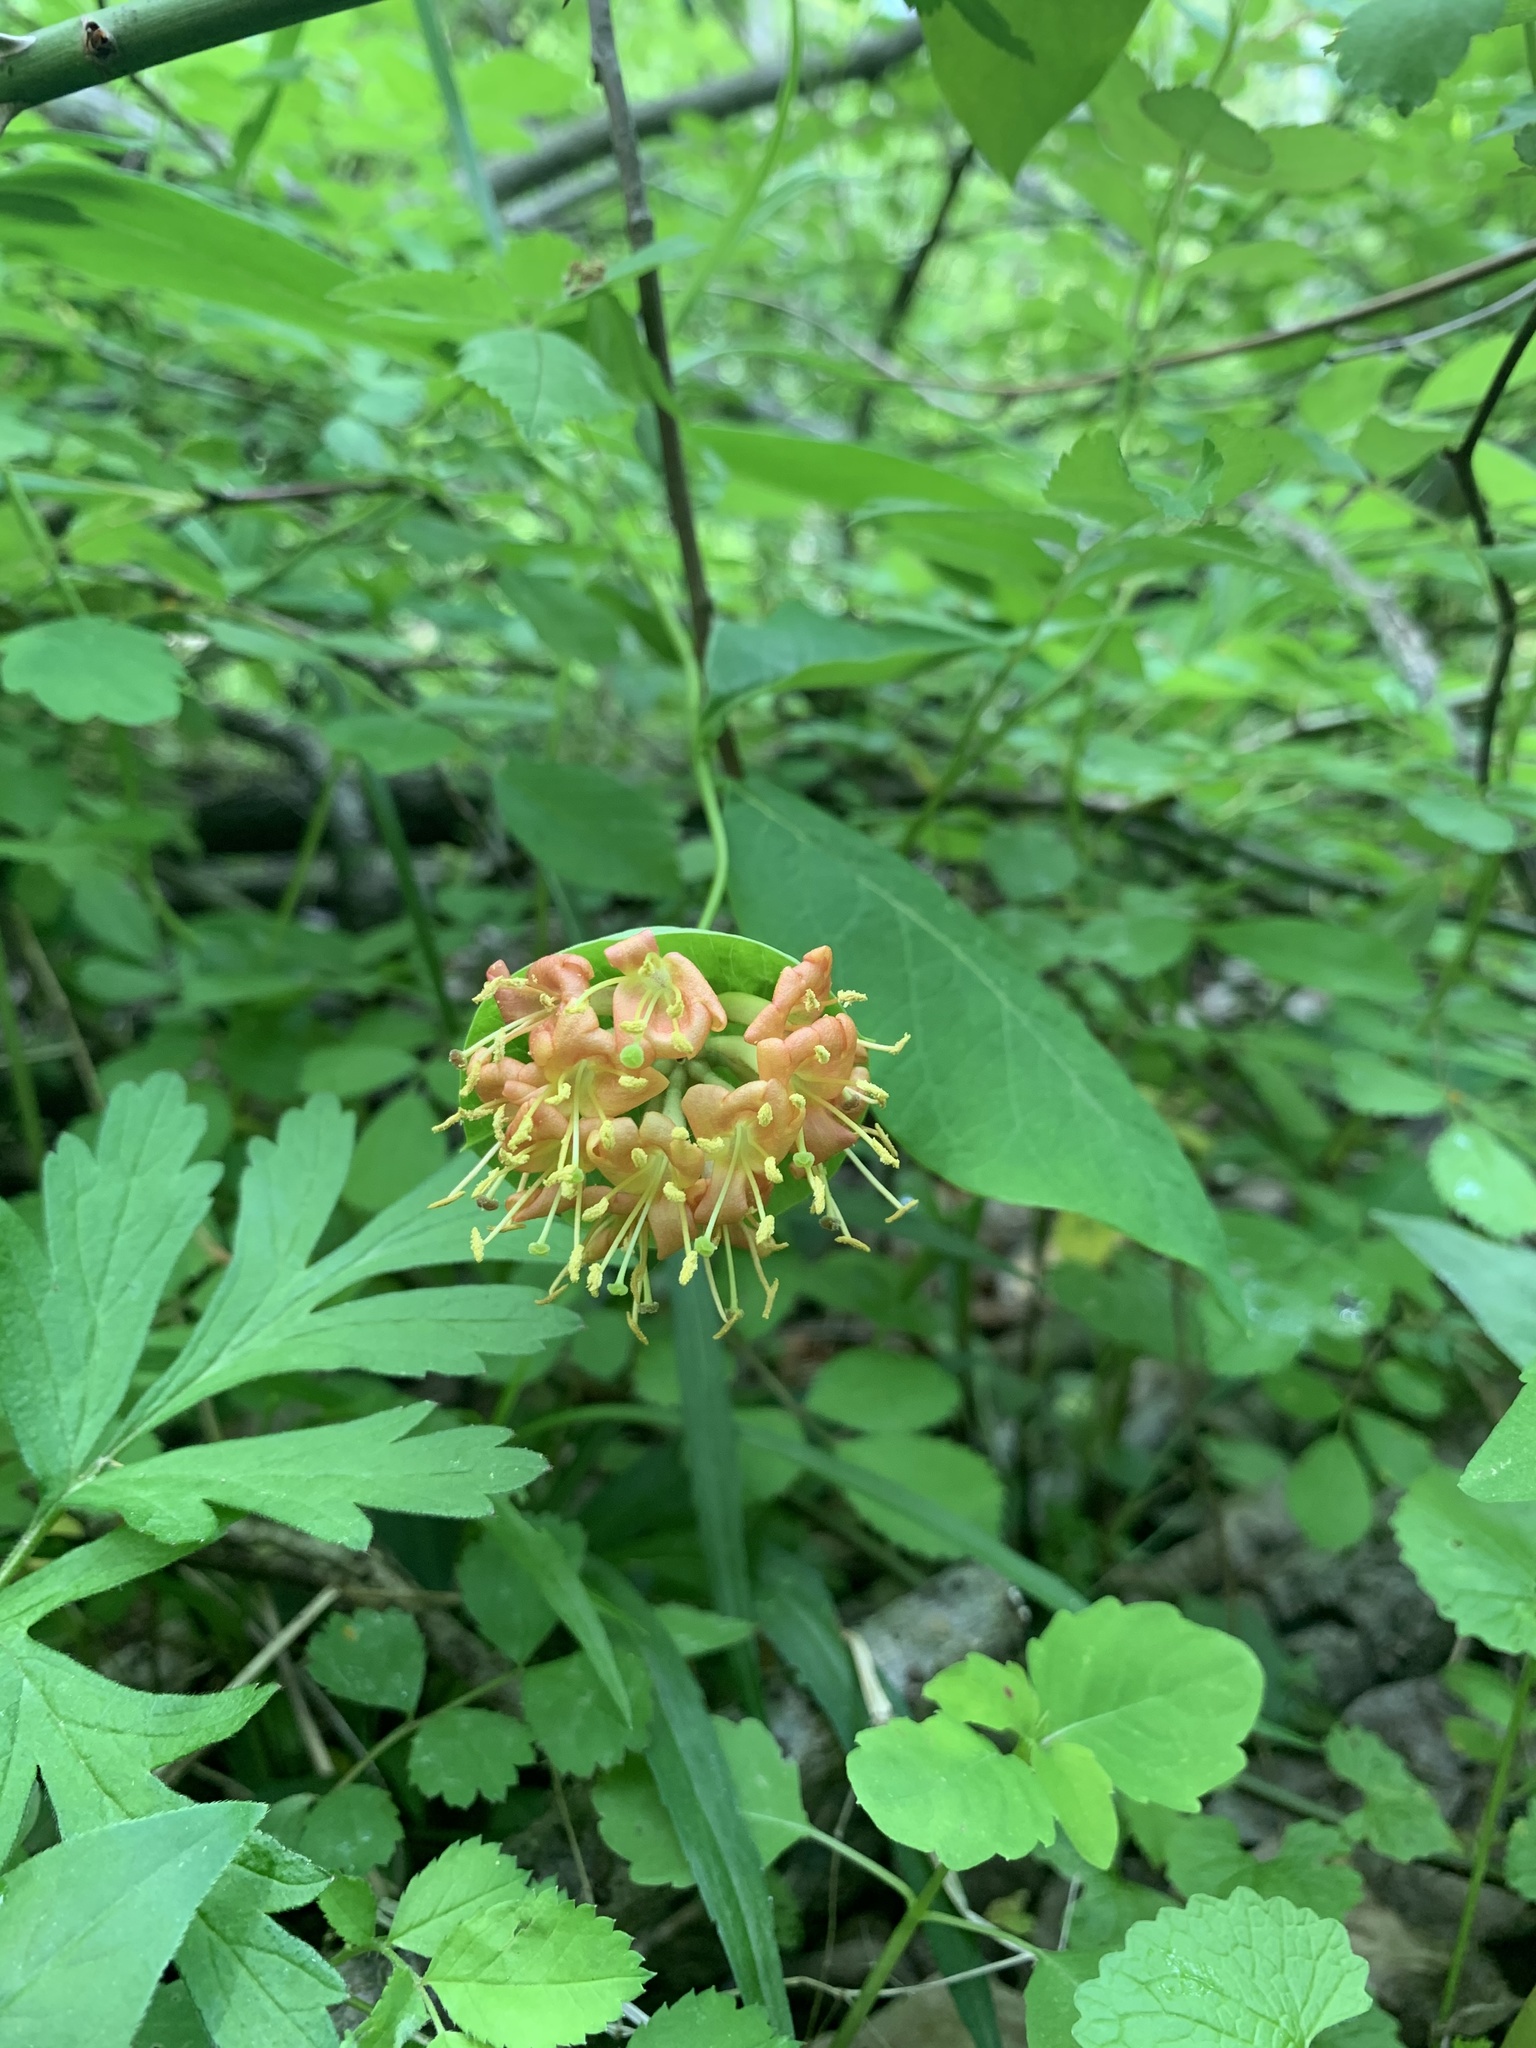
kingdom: Plantae
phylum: Tracheophyta
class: Magnoliopsida
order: Dipsacales
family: Caprifoliaceae
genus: Lonicera
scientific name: Lonicera dioica
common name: Limber honeysuckle
